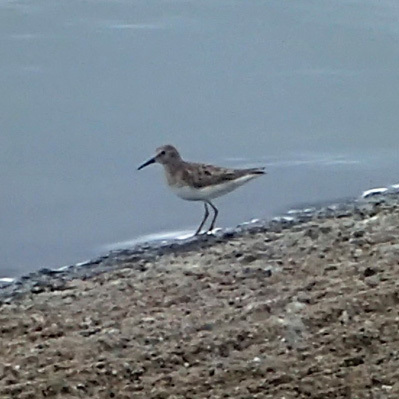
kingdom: Animalia
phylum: Chordata
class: Aves
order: Charadriiformes
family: Scolopacidae
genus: Calidris
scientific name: Calidris minutilla
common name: Least sandpiper
